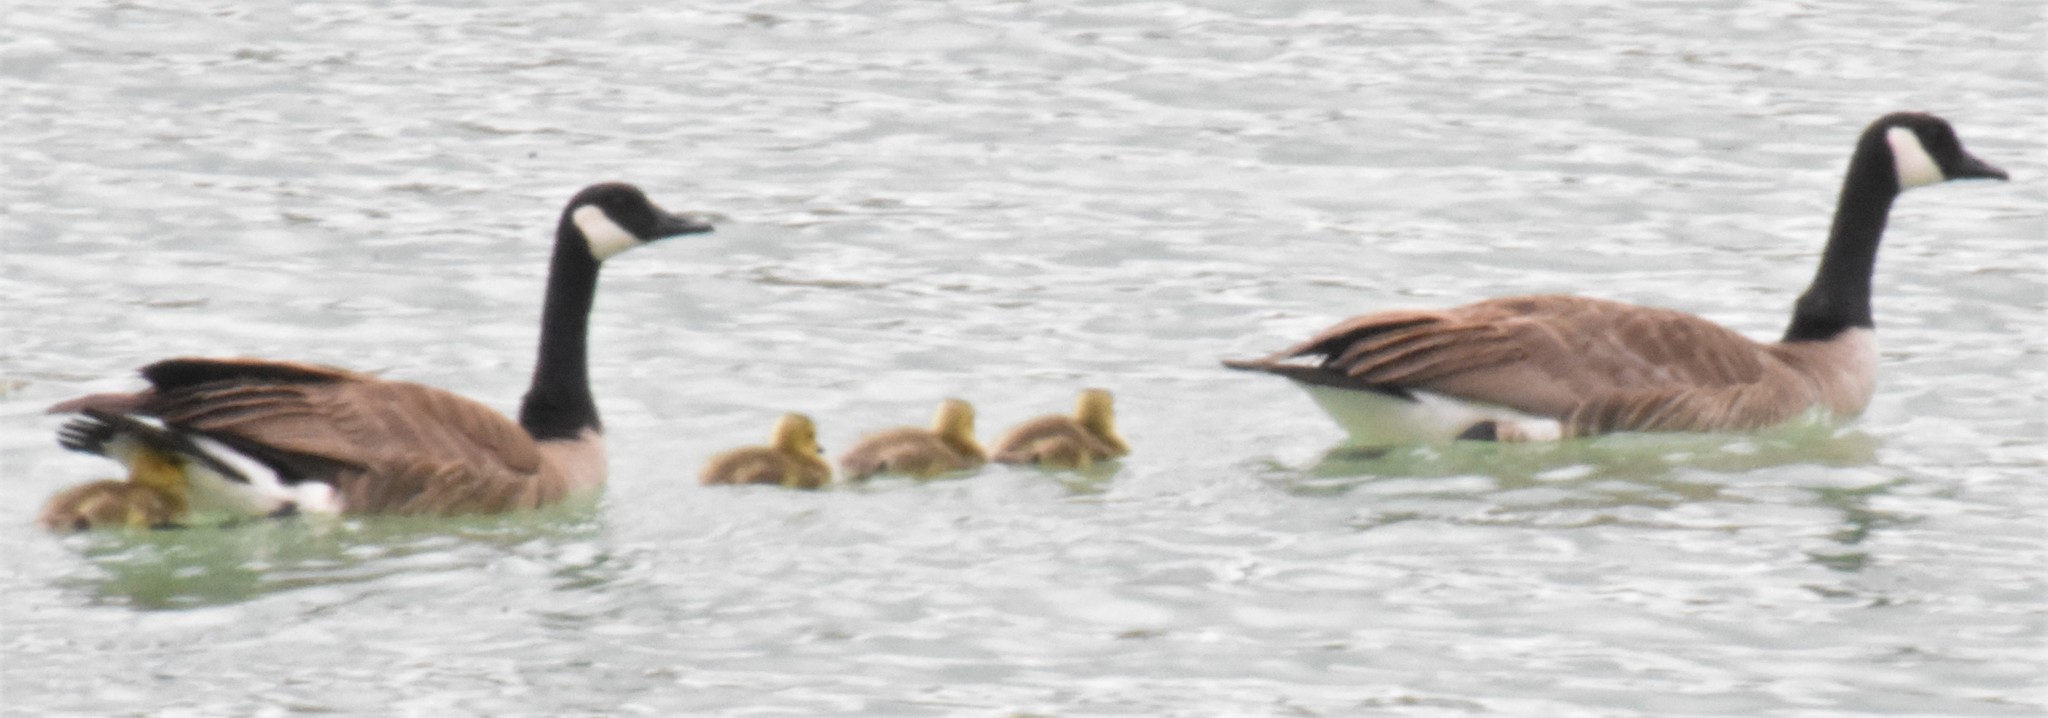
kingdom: Animalia
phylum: Chordata
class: Aves
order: Anseriformes
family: Anatidae
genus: Branta
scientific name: Branta canadensis
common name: Canada goose
